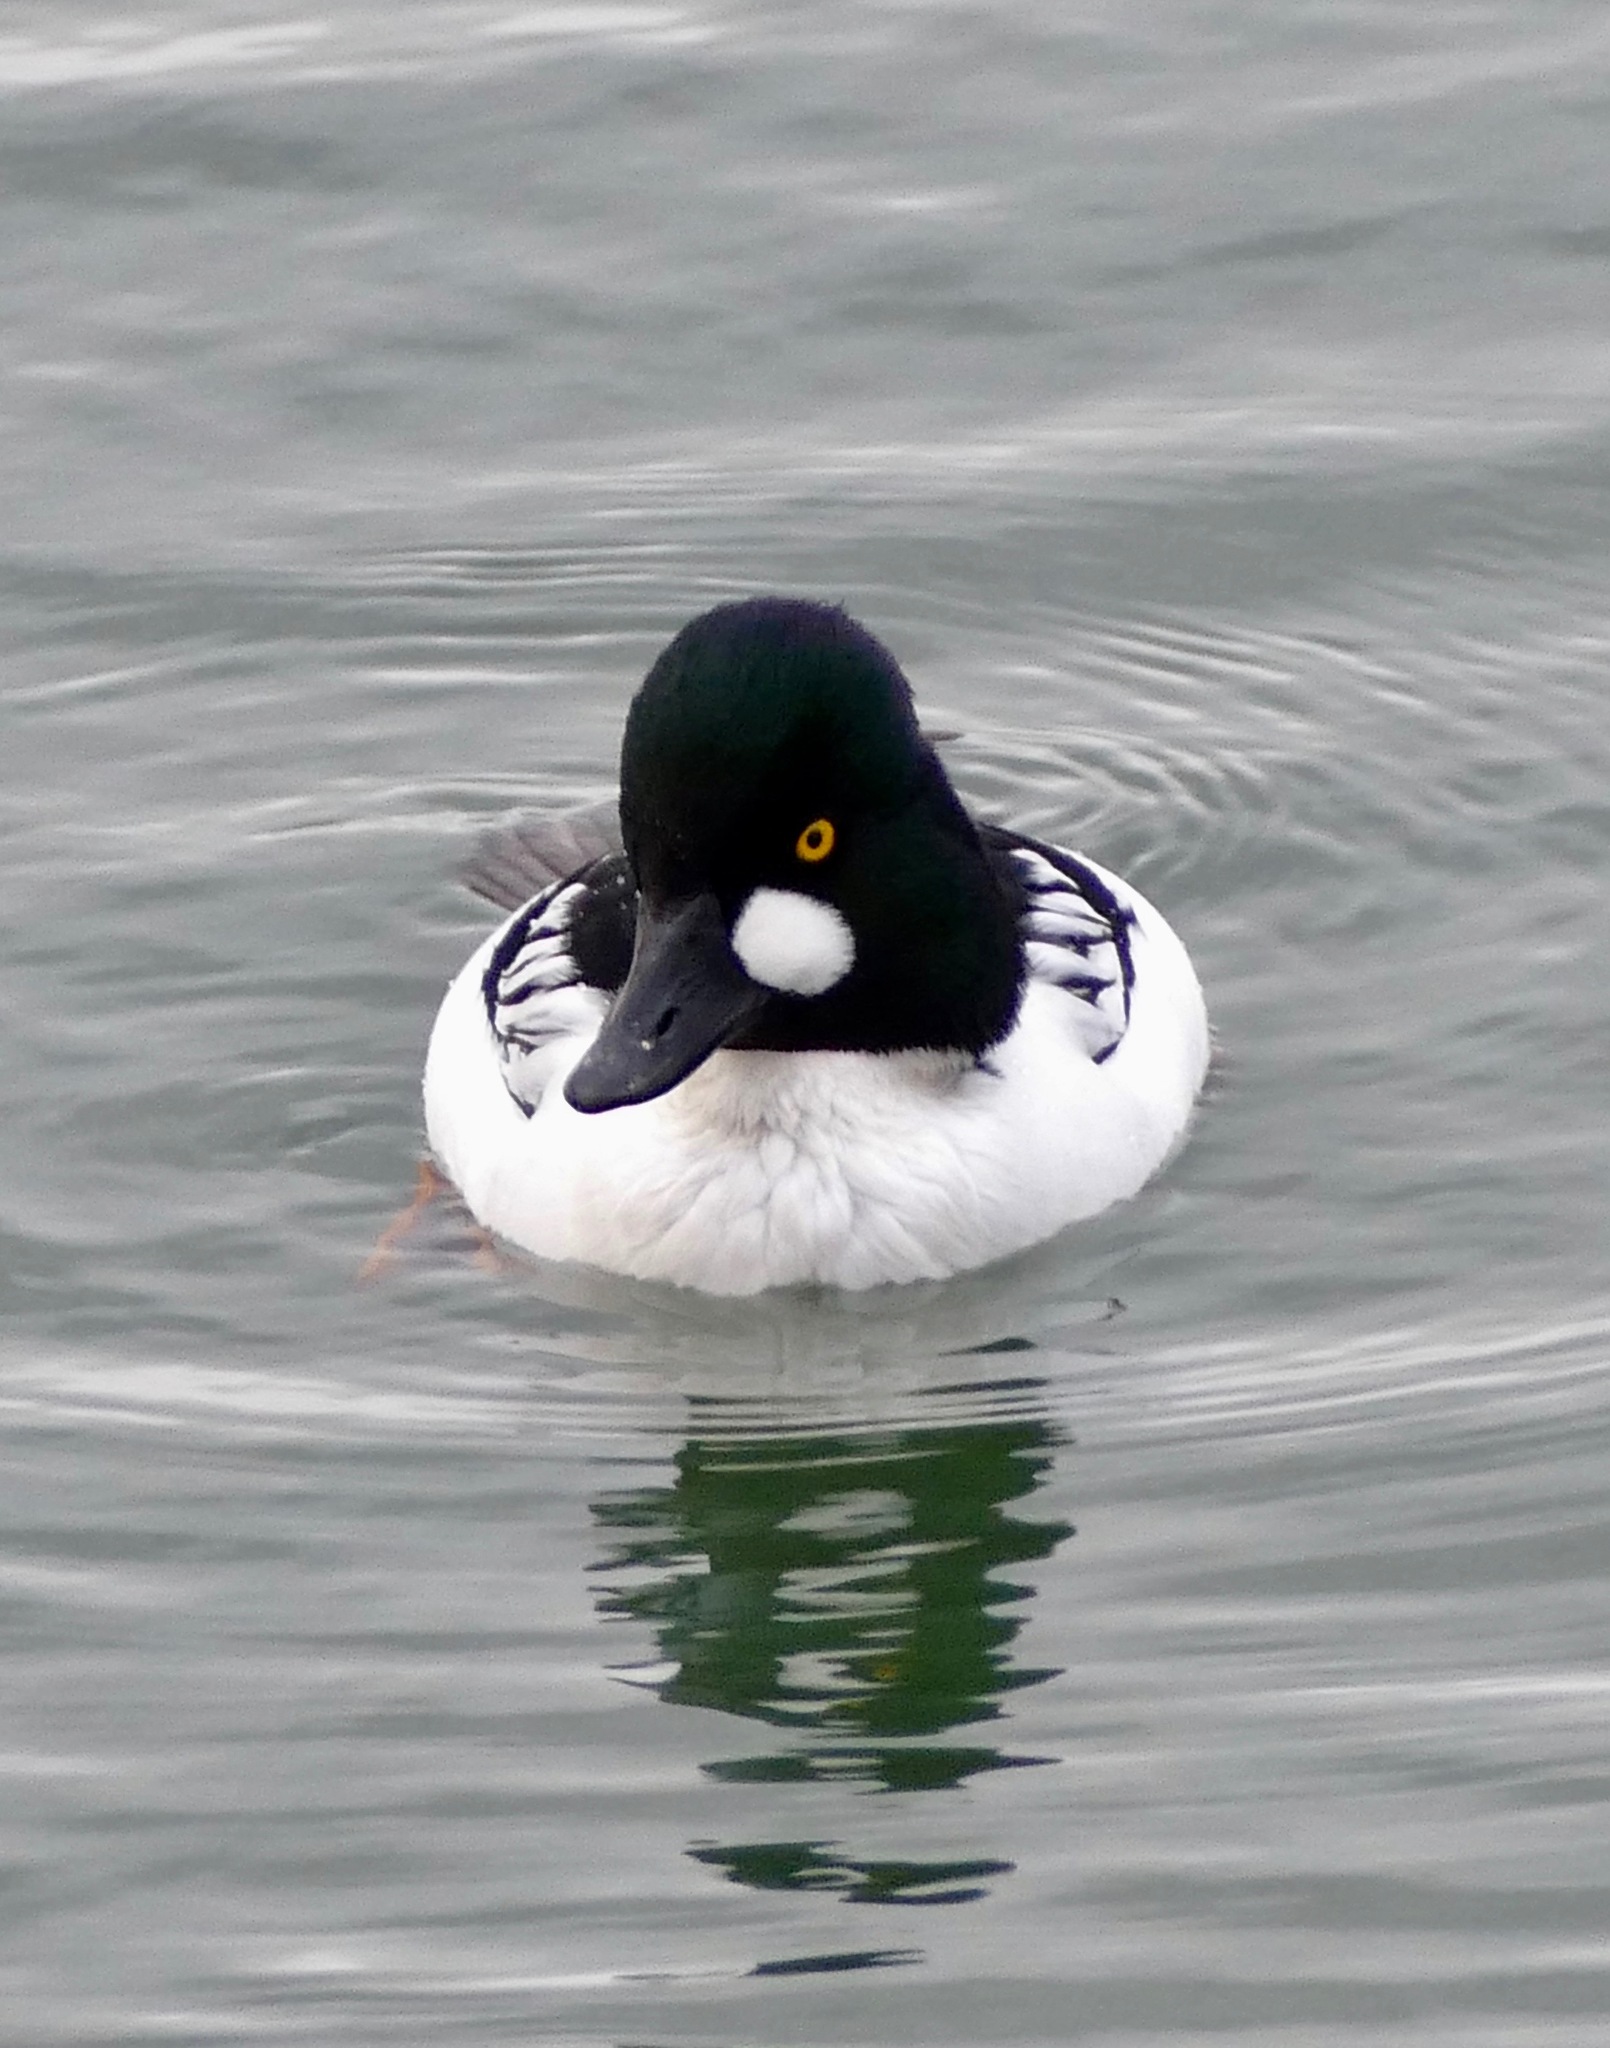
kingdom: Animalia
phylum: Chordata
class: Aves
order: Anseriformes
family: Anatidae
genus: Bucephala
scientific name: Bucephala clangula
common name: Common goldeneye
